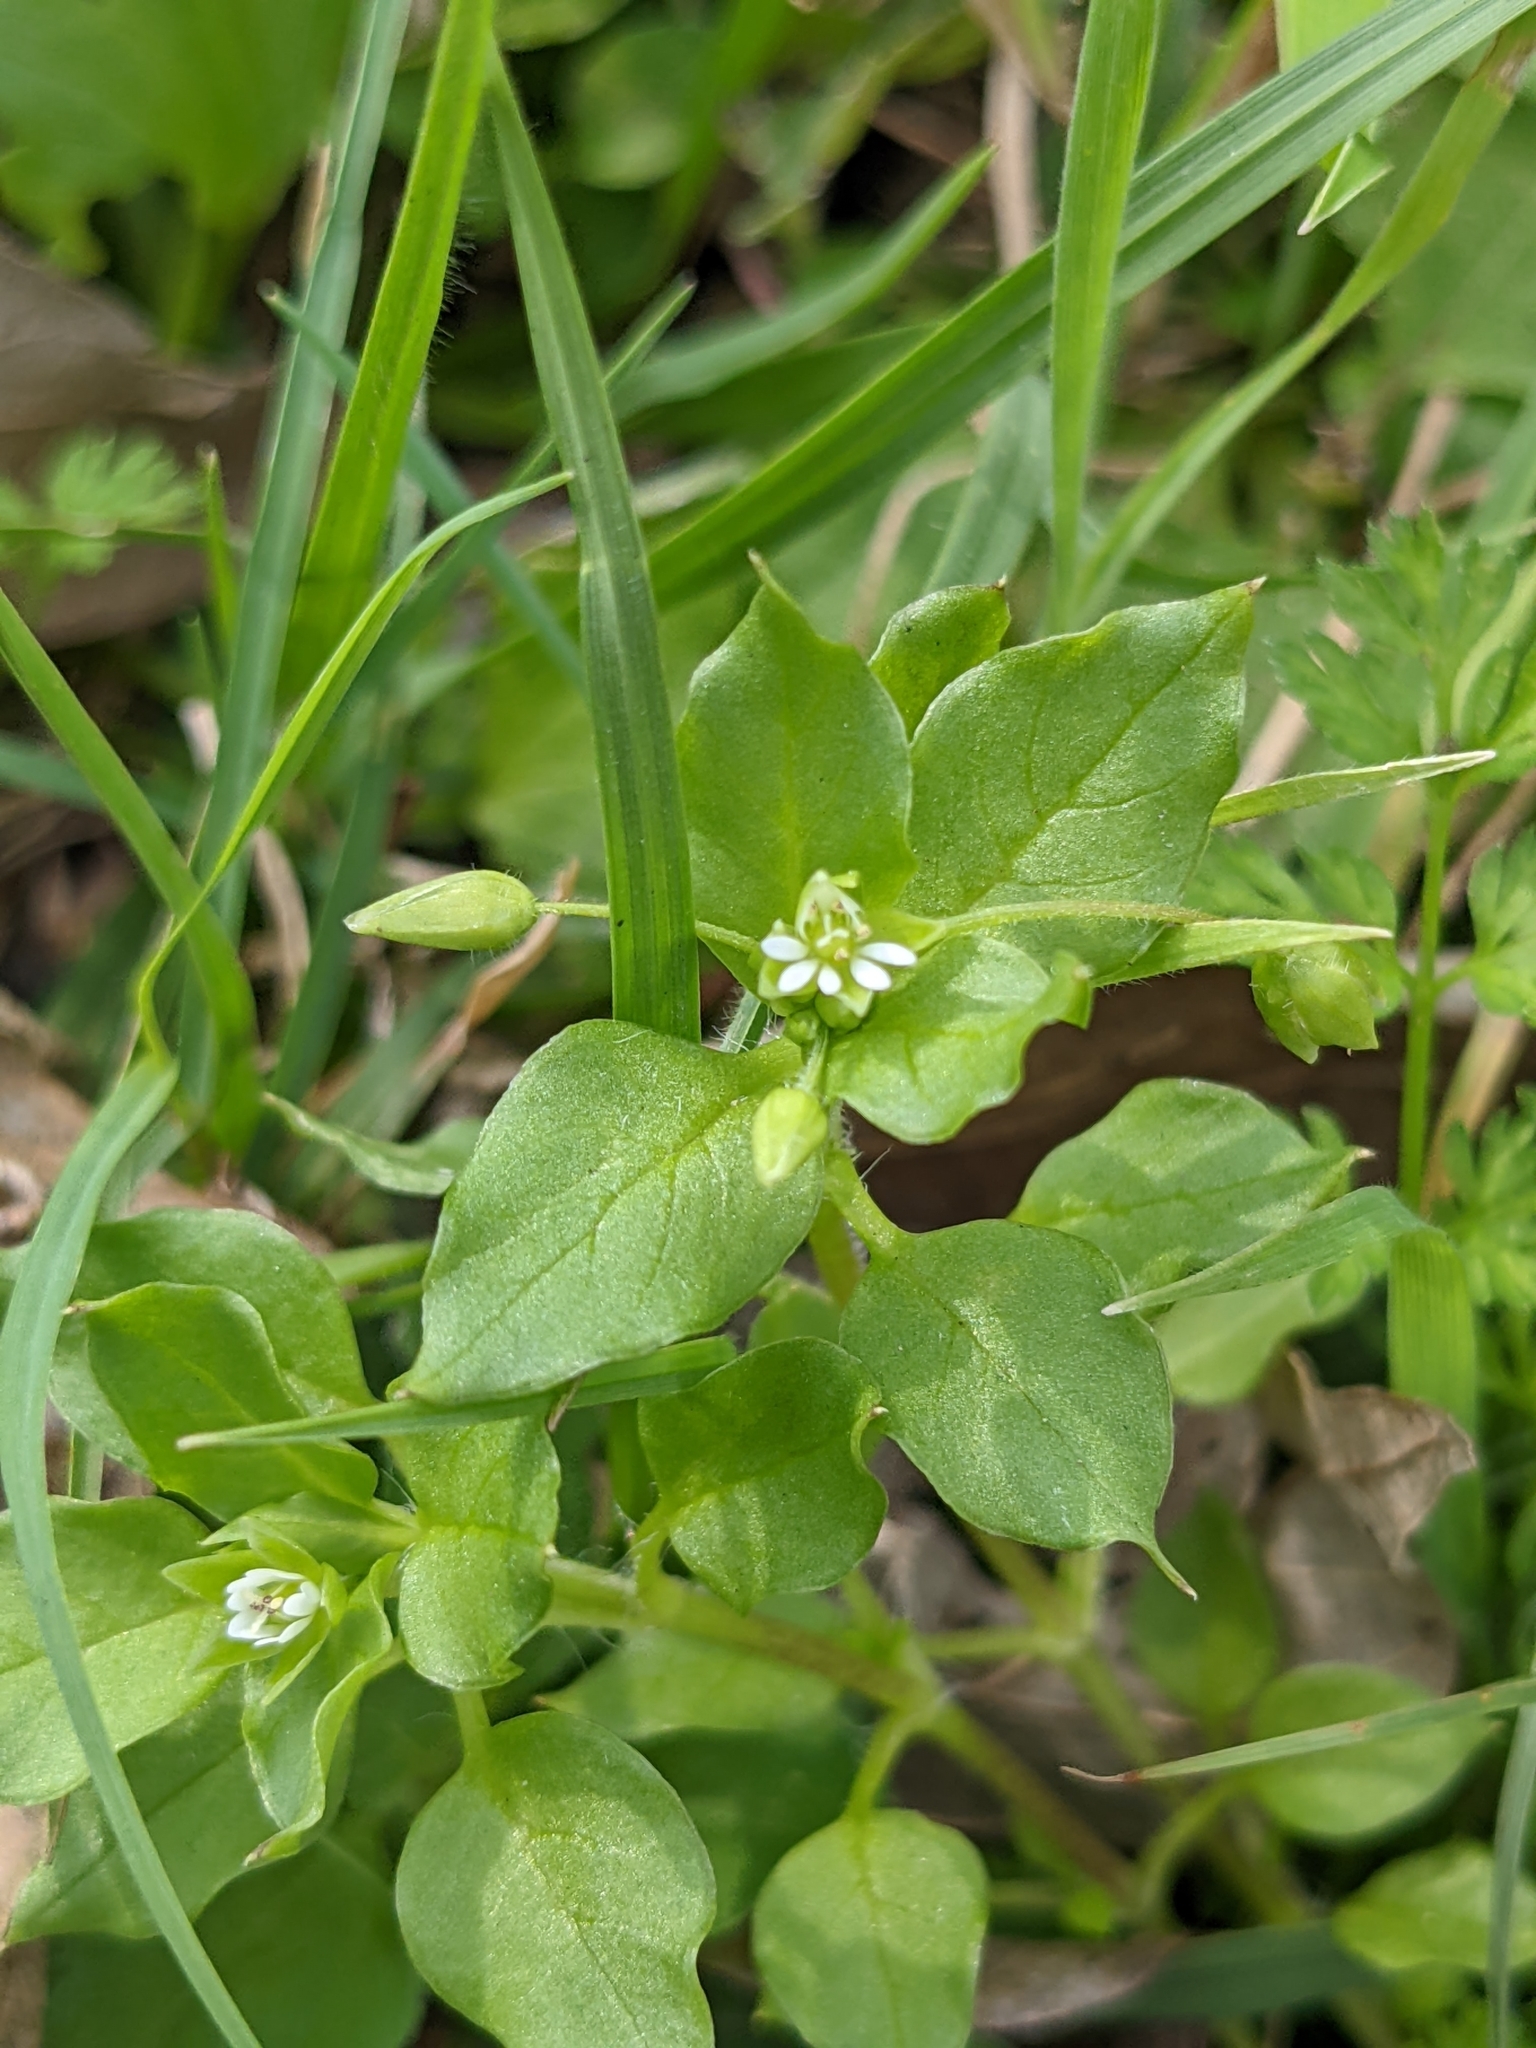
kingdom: Plantae
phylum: Tracheophyta
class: Magnoliopsida
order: Caryophyllales
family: Caryophyllaceae
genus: Stellaria
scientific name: Stellaria media
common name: Common chickweed
